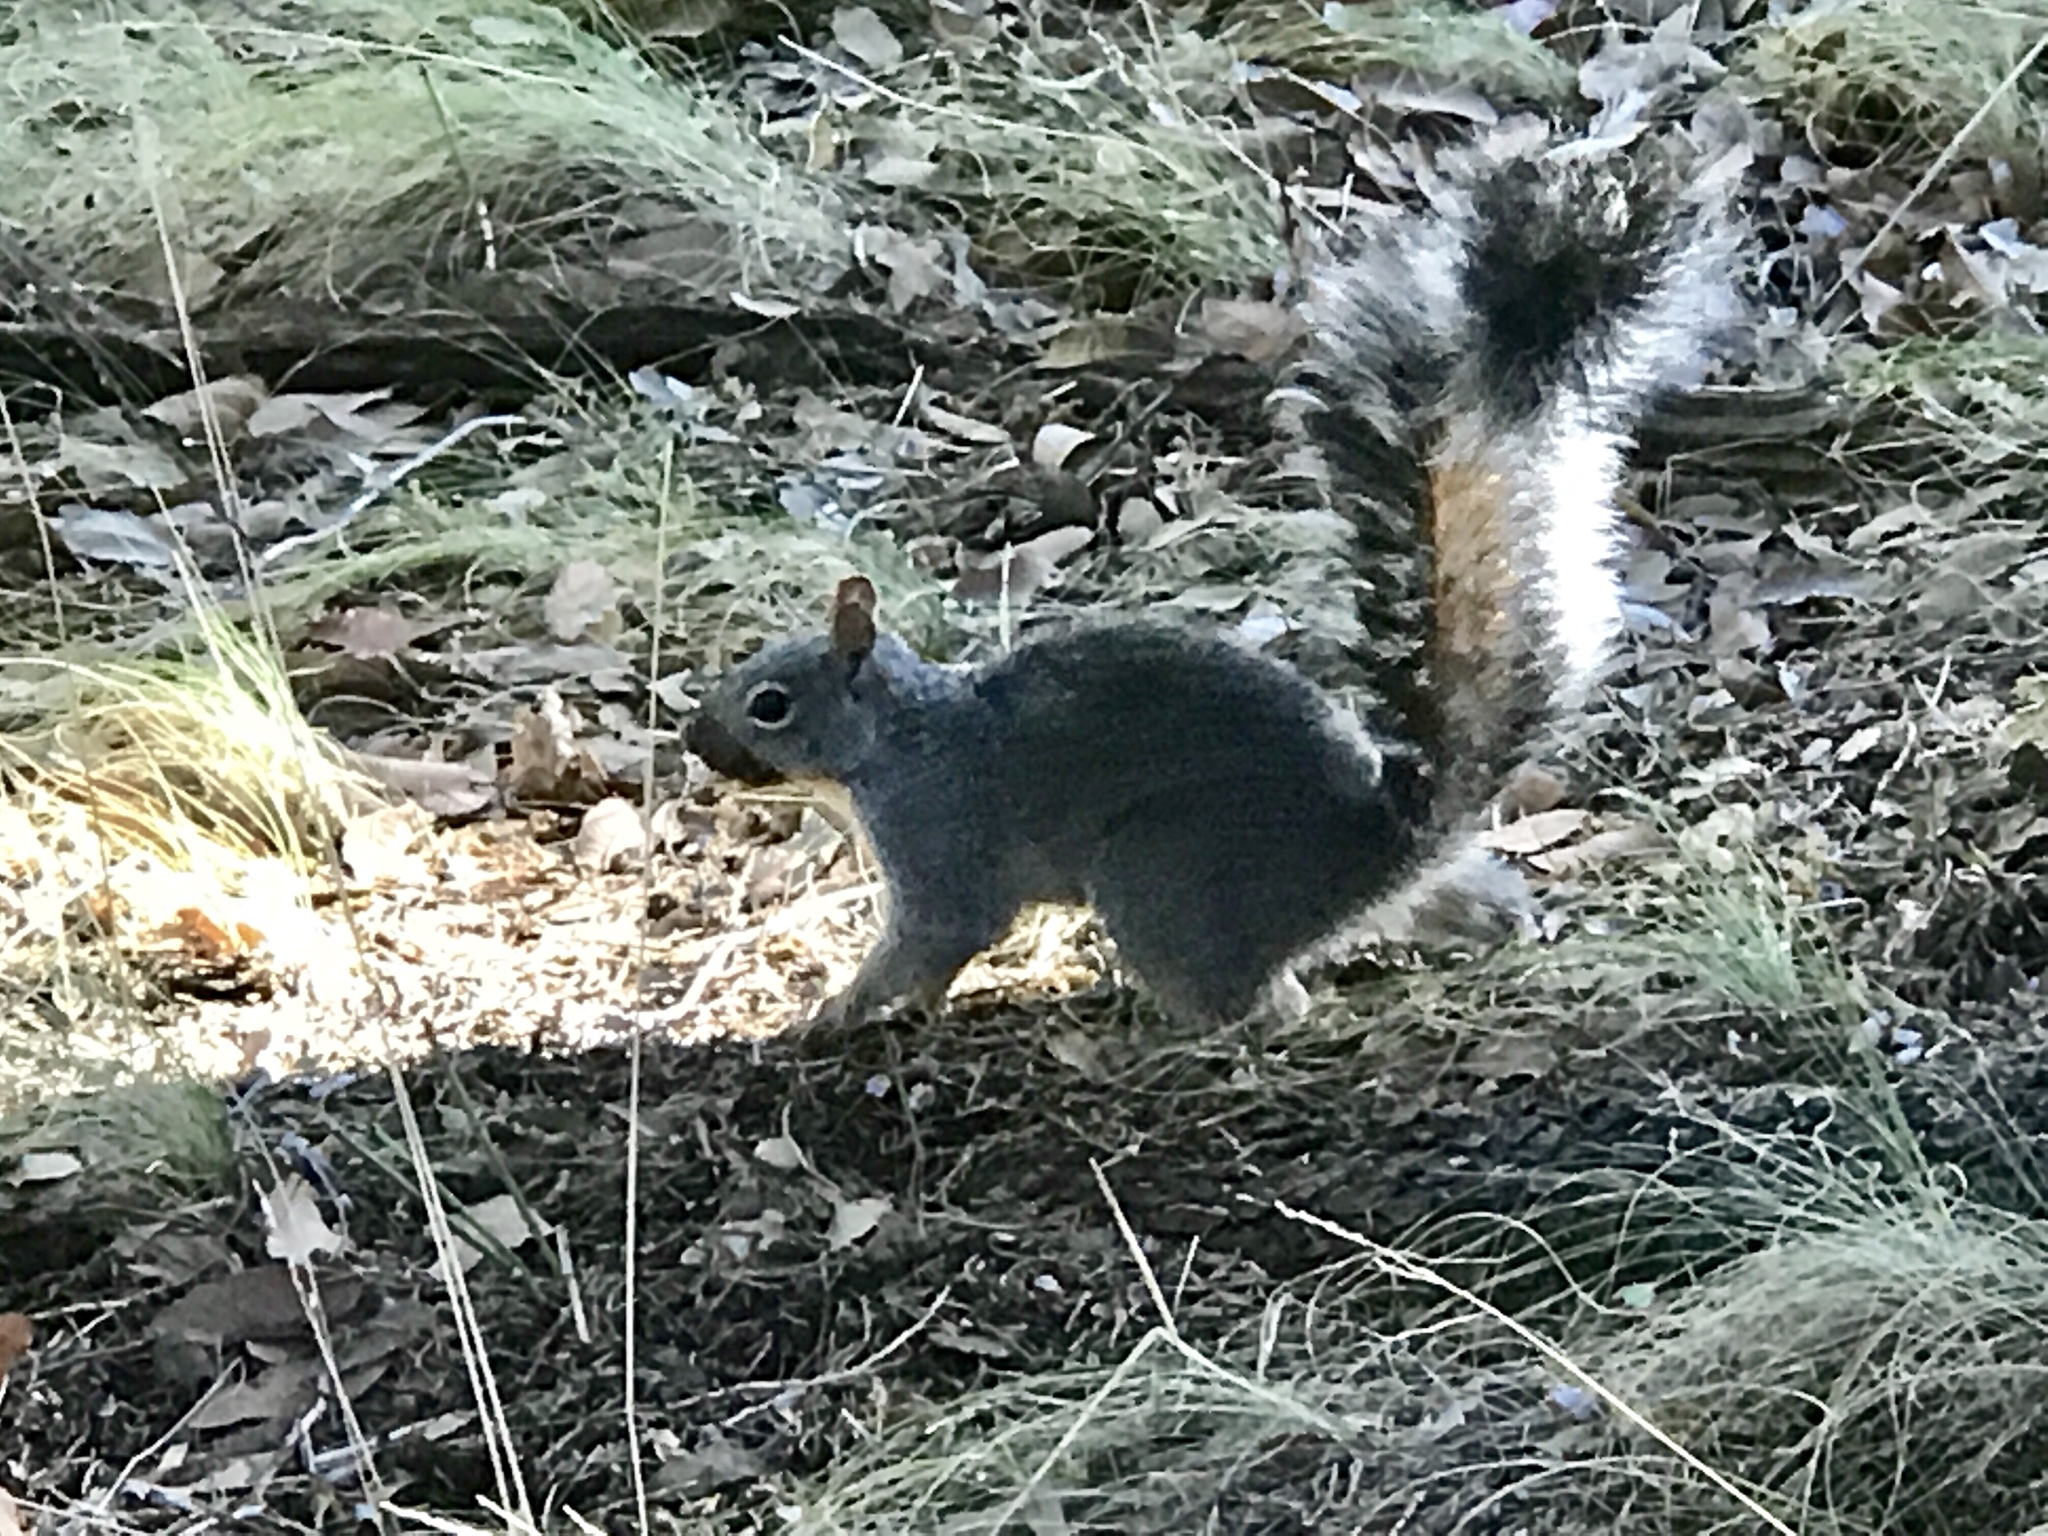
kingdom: Animalia
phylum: Chordata
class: Mammalia
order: Rodentia
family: Sciuridae
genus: Sciurus
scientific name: Sciurus arizonensis
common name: Arizona gray squirrel
